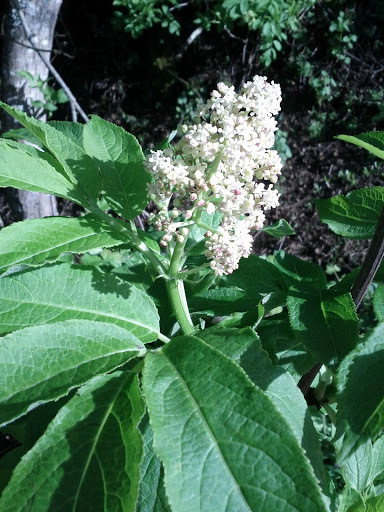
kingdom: Plantae
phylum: Tracheophyta
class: Magnoliopsida
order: Dipsacales
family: Viburnaceae
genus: Sambucus
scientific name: Sambucus racemosa
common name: Red-berried elder
